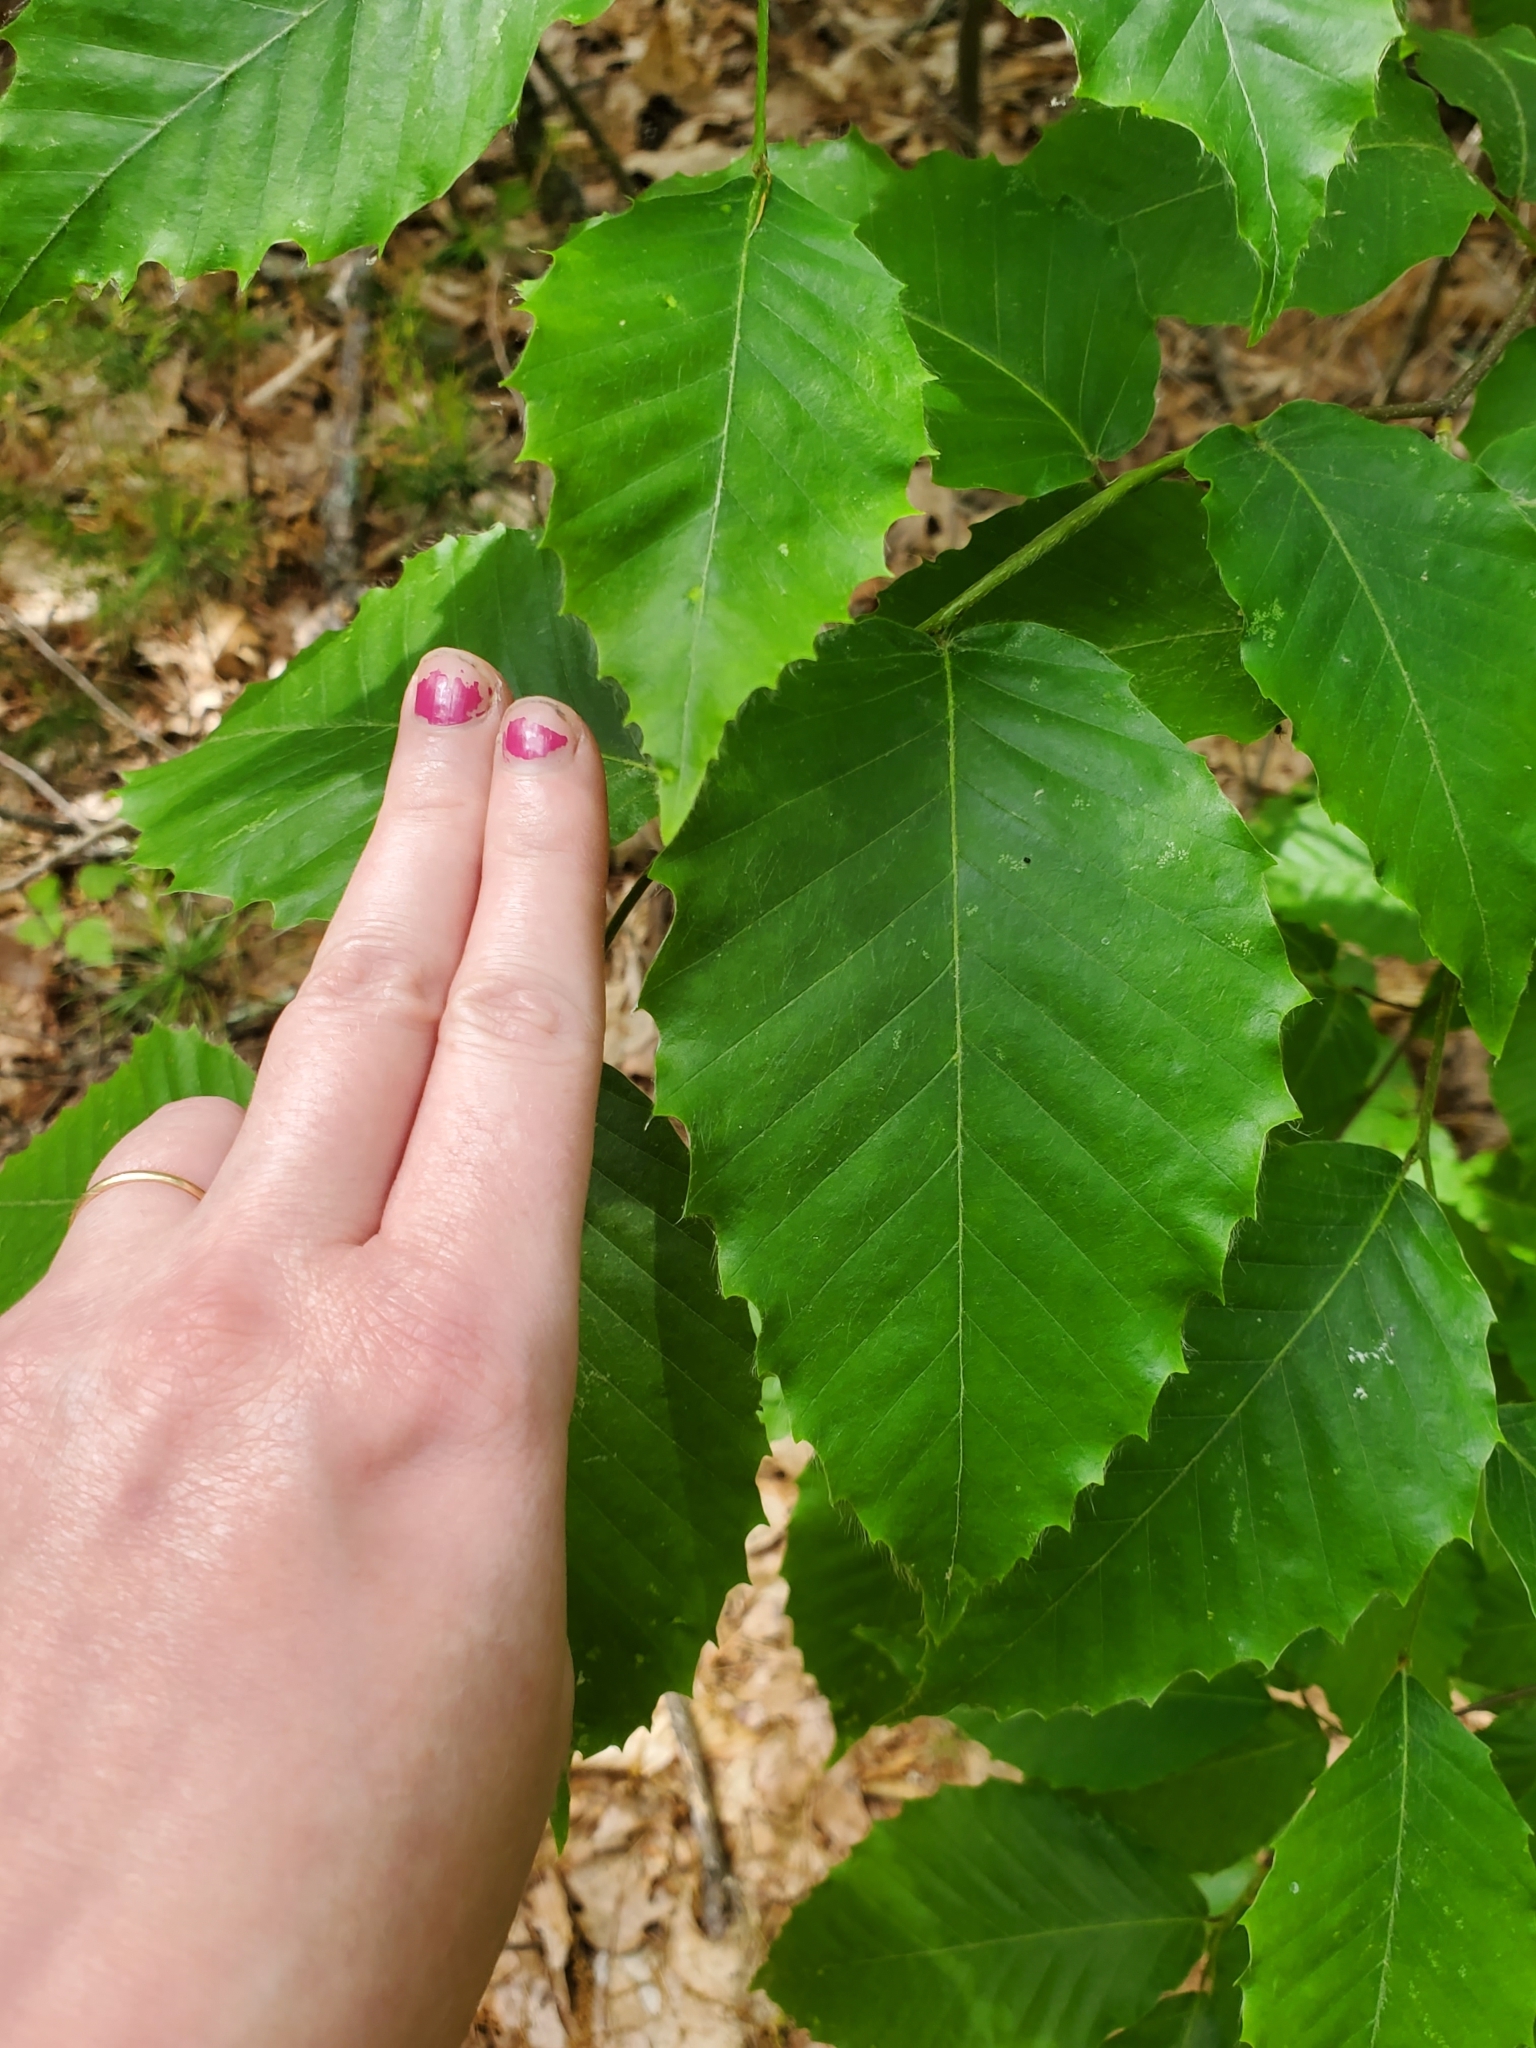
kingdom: Plantae
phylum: Tracheophyta
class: Magnoliopsida
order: Fagales
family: Fagaceae
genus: Fagus
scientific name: Fagus grandifolia
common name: American beech
